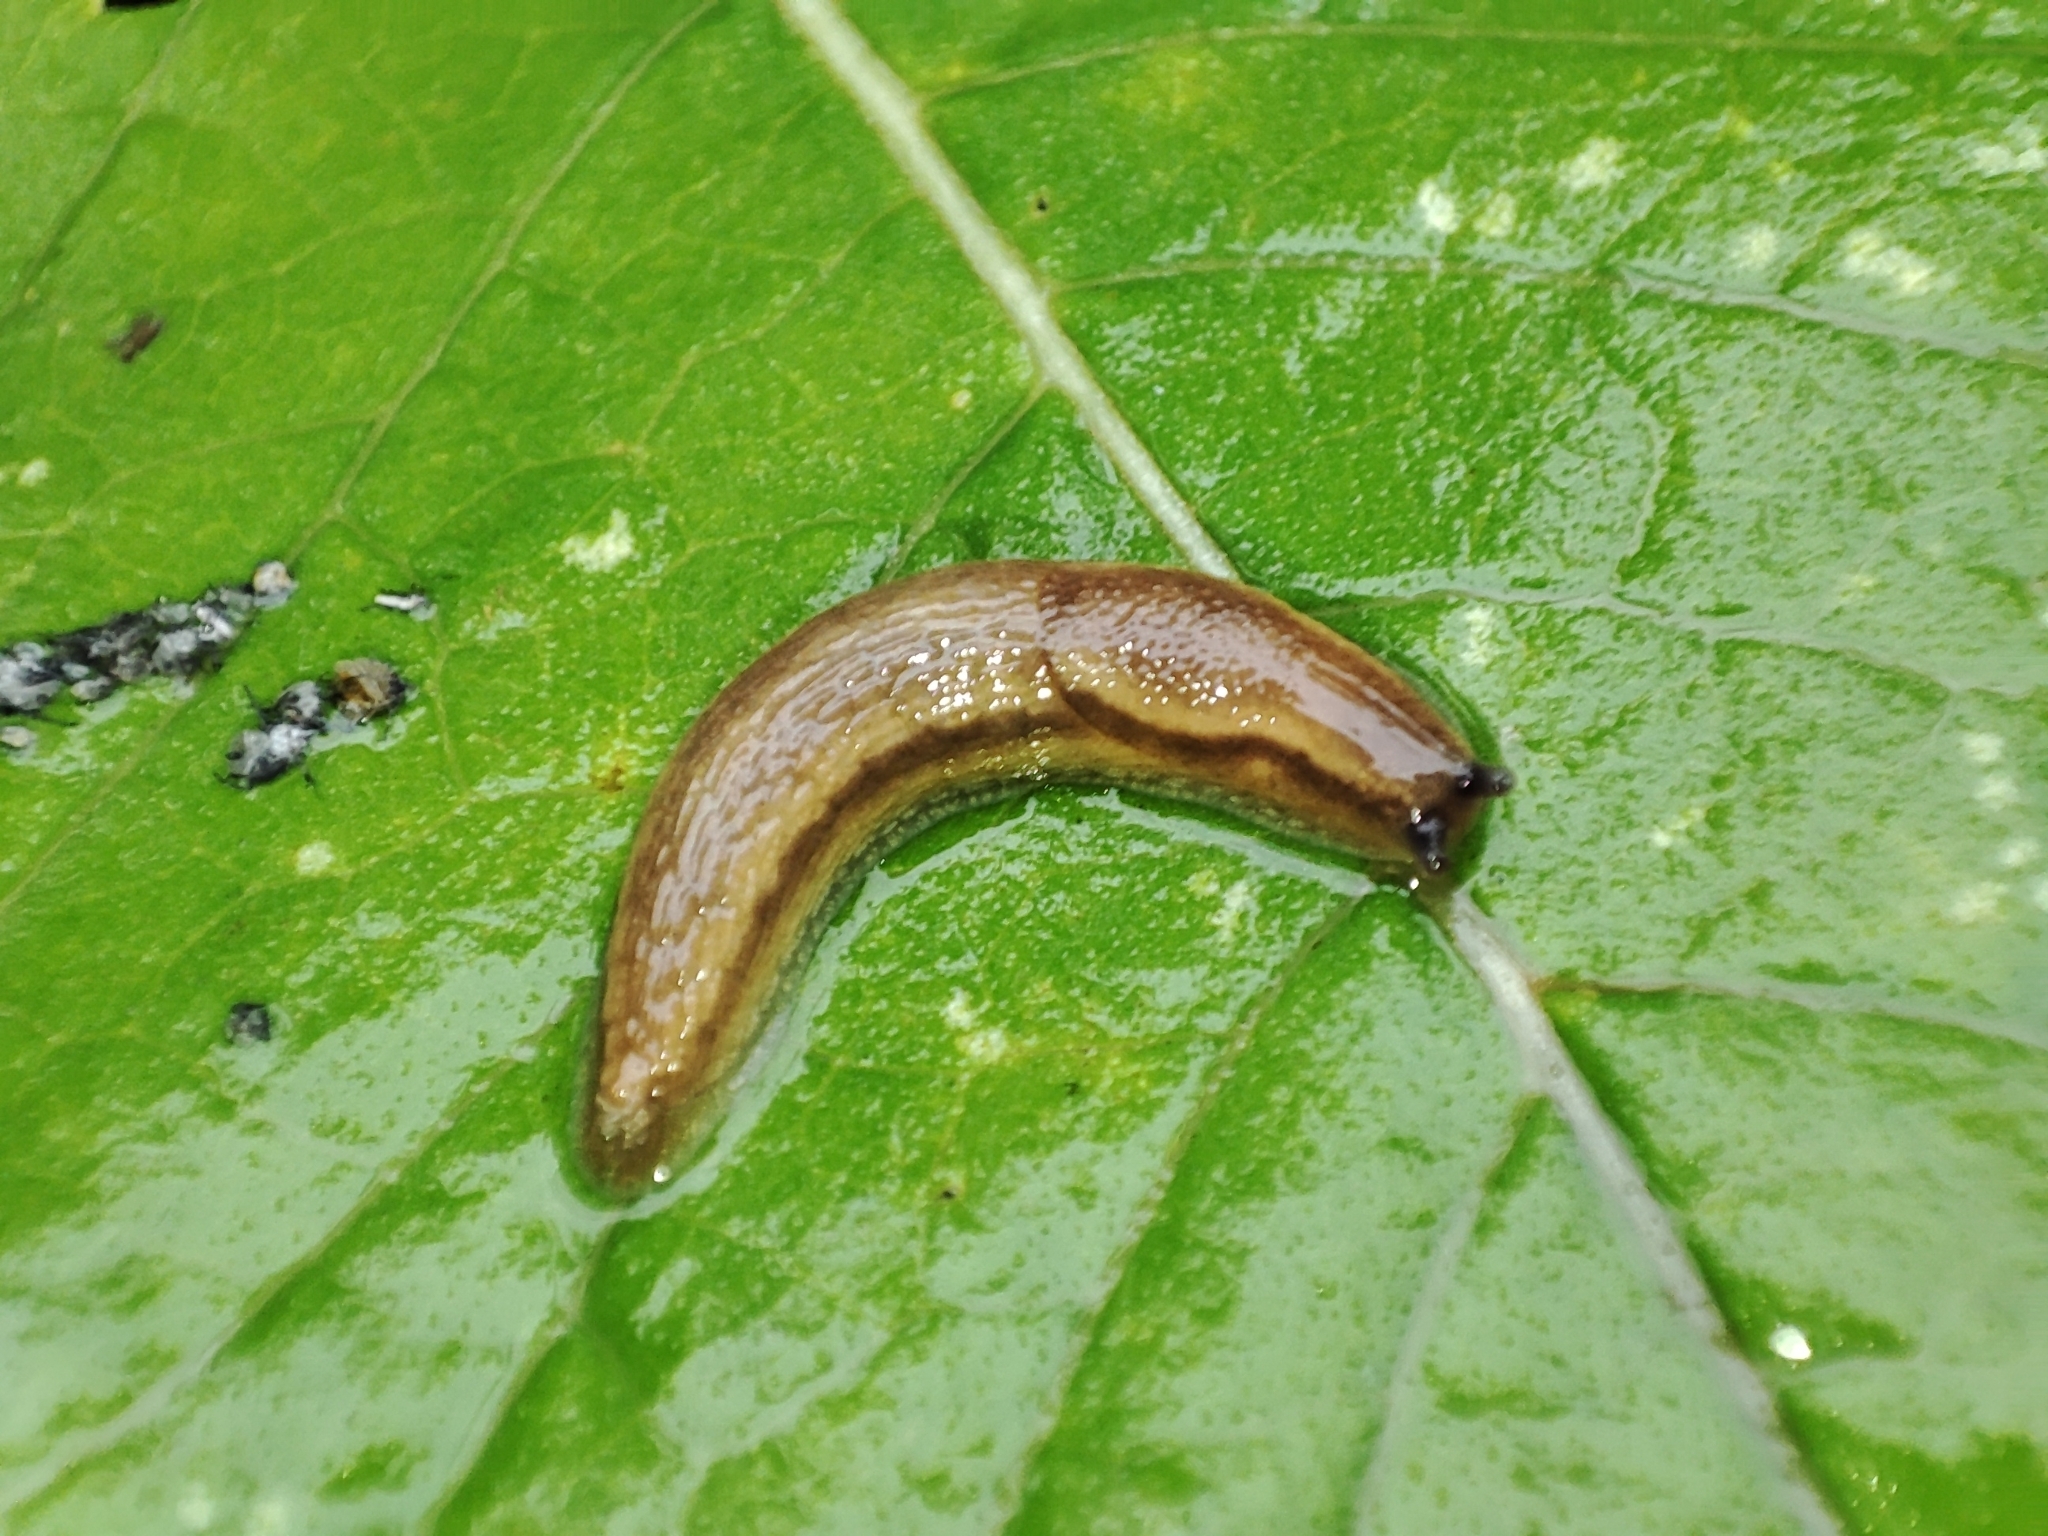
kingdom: Animalia
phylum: Mollusca
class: Gastropoda
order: Stylommatophora
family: Arionidae
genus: Arion
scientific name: Arion fuscus
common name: Northern dusky slug
